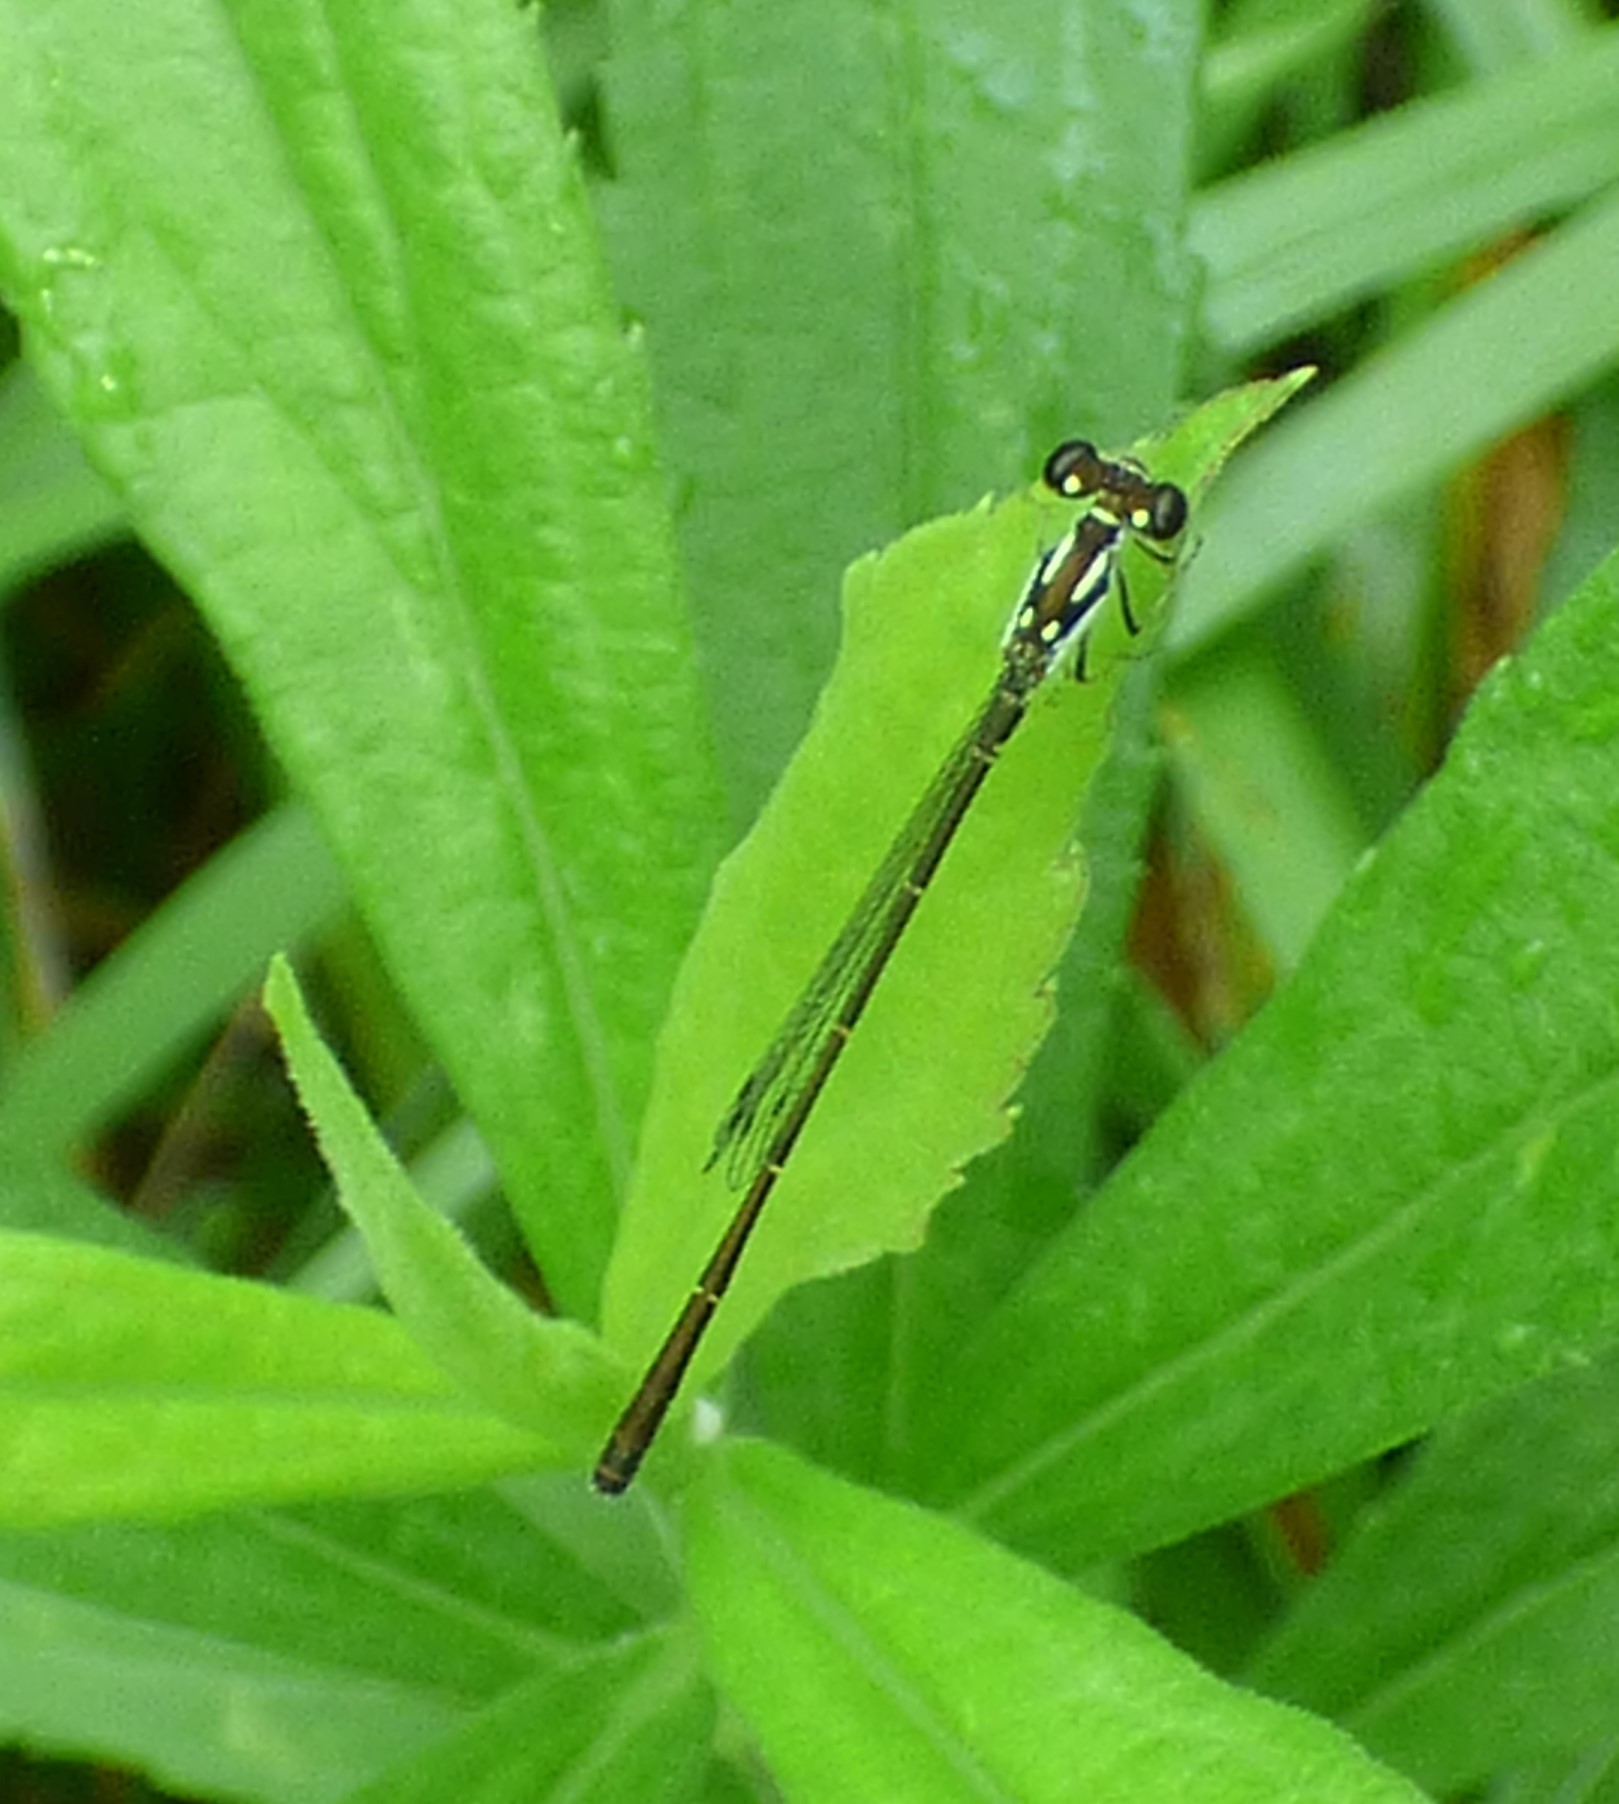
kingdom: Animalia
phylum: Arthropoda
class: Insecta
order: Odonata
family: Coenagrionidae
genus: Ischnura
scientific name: Ischnura posita
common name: Fragile forktail
